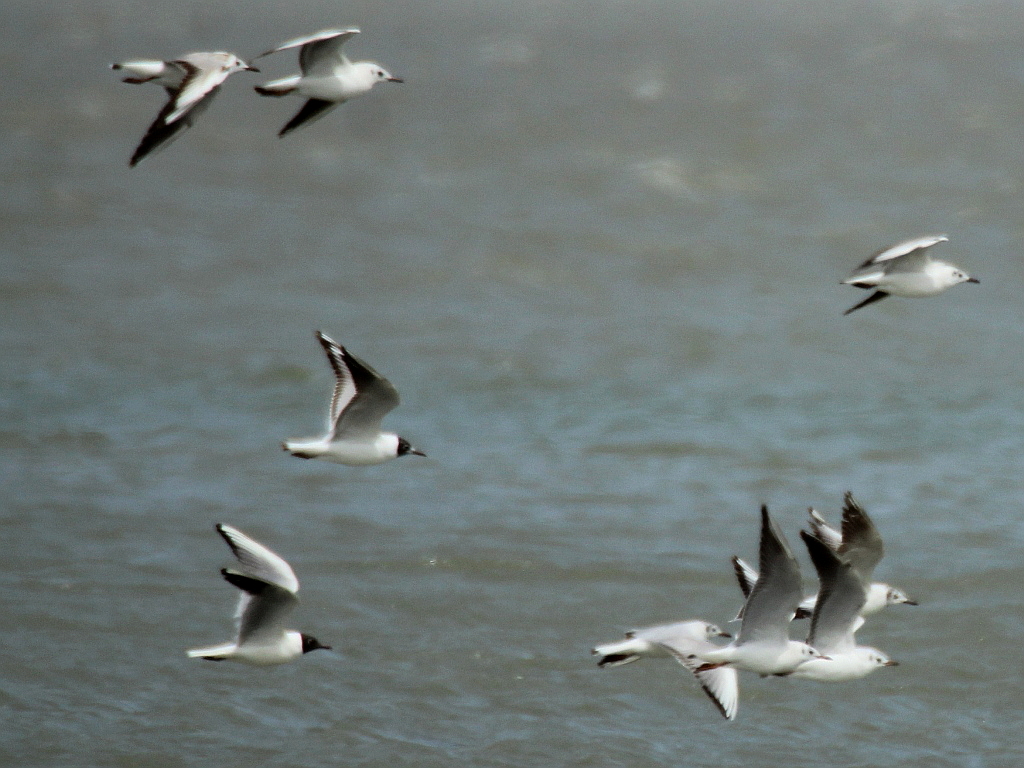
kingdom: Animalia
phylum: Chordata
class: Aves
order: Charadriiformes
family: Laridae
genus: Chroicocephalus
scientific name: Chroicocephalus ridibundus
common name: Black-headed gull
